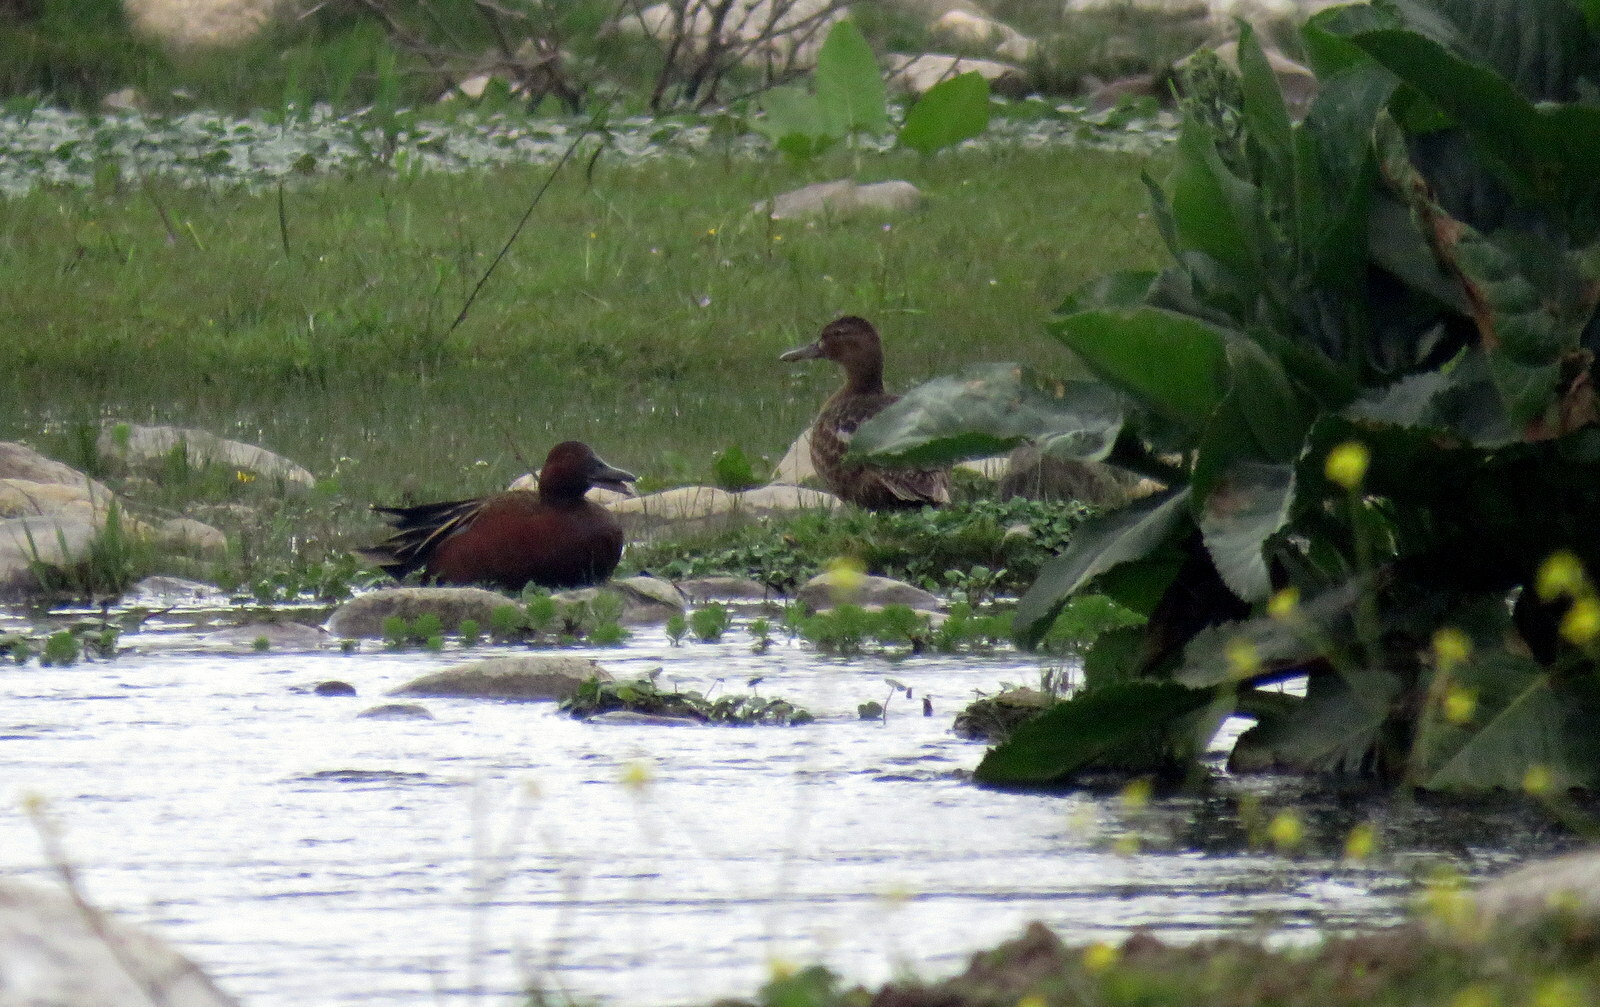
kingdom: Animalia
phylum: Chordata
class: Aves
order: Anseriformes
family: Anatidae
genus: Spatula
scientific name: Spatula cyanoptera
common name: Cinnamon teal
